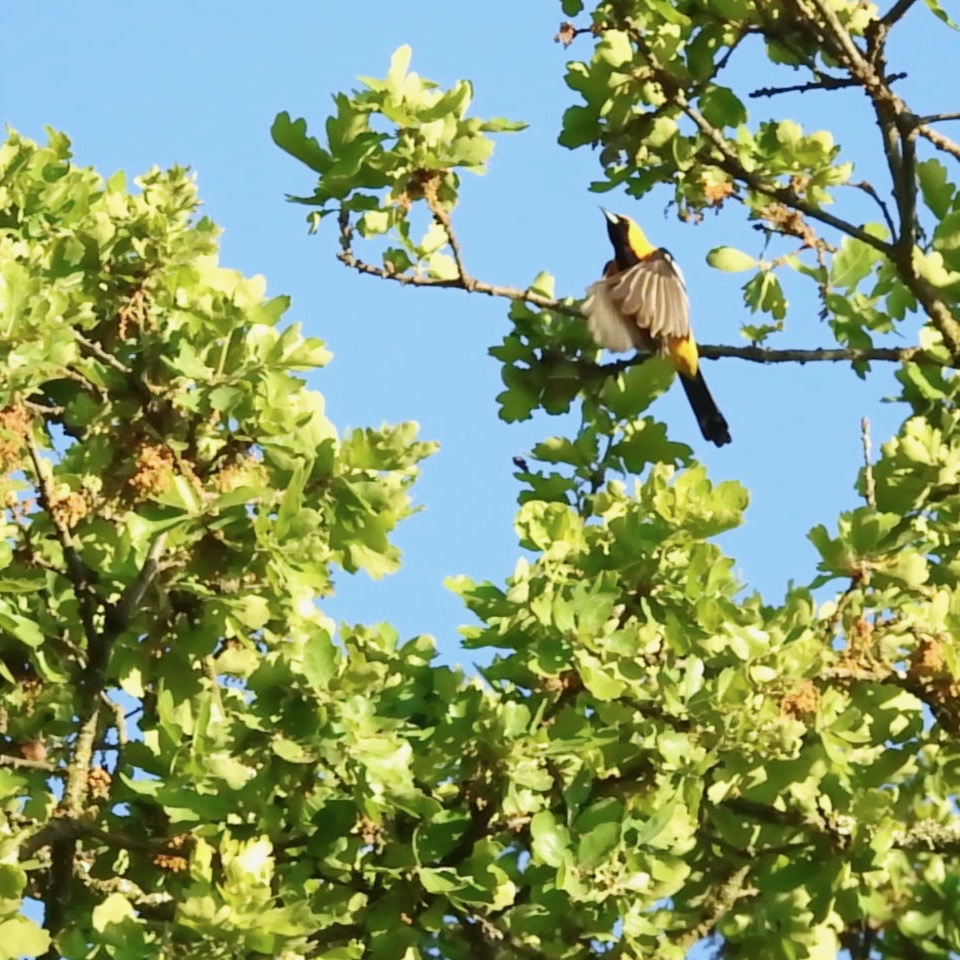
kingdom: Animalia
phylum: Chordata
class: Aves
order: Passeriformes
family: Icteridae
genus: Icterus
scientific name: Icterus cucullatus
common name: Hooded oriole
